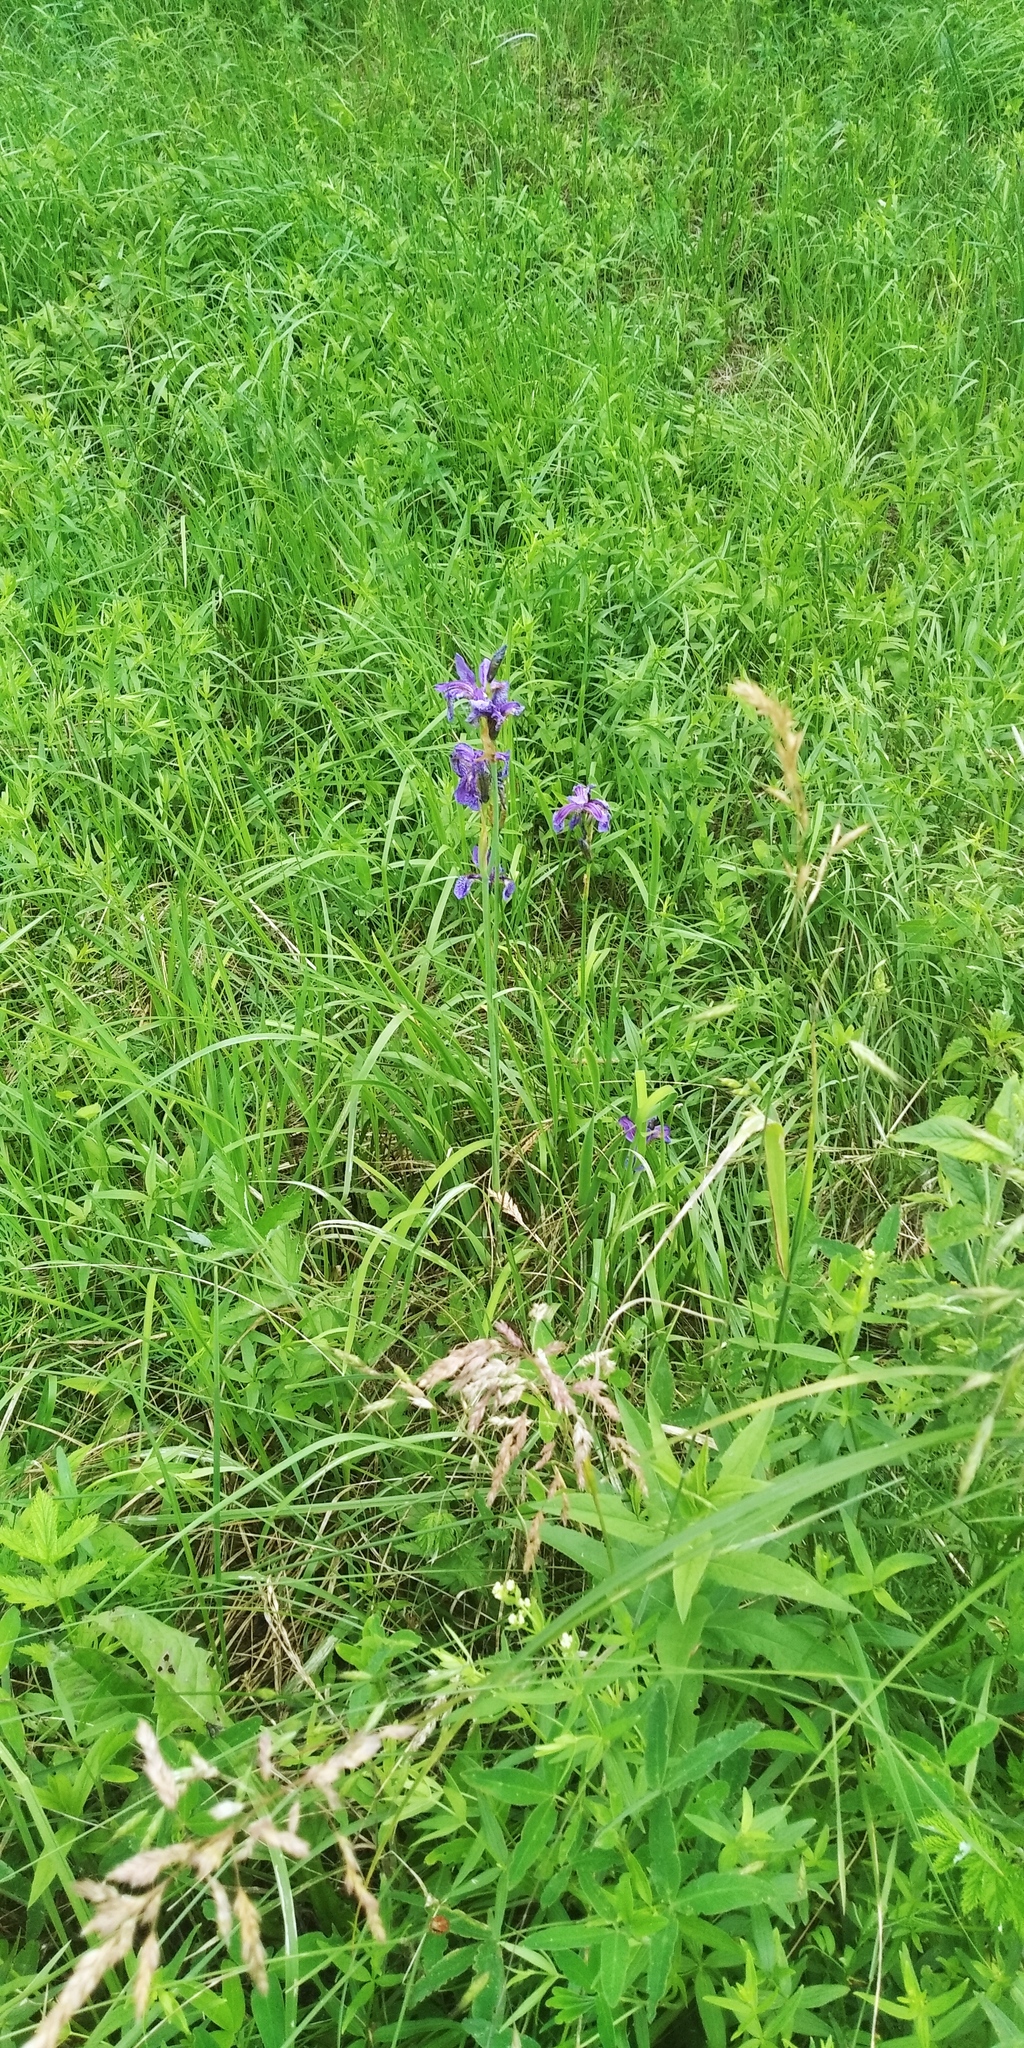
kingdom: Plantae
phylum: Tracheophyta
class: Liliopsida
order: Asparagales
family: Iridaceae
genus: Iris
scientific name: Iris sibirica
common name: Siberian iris
